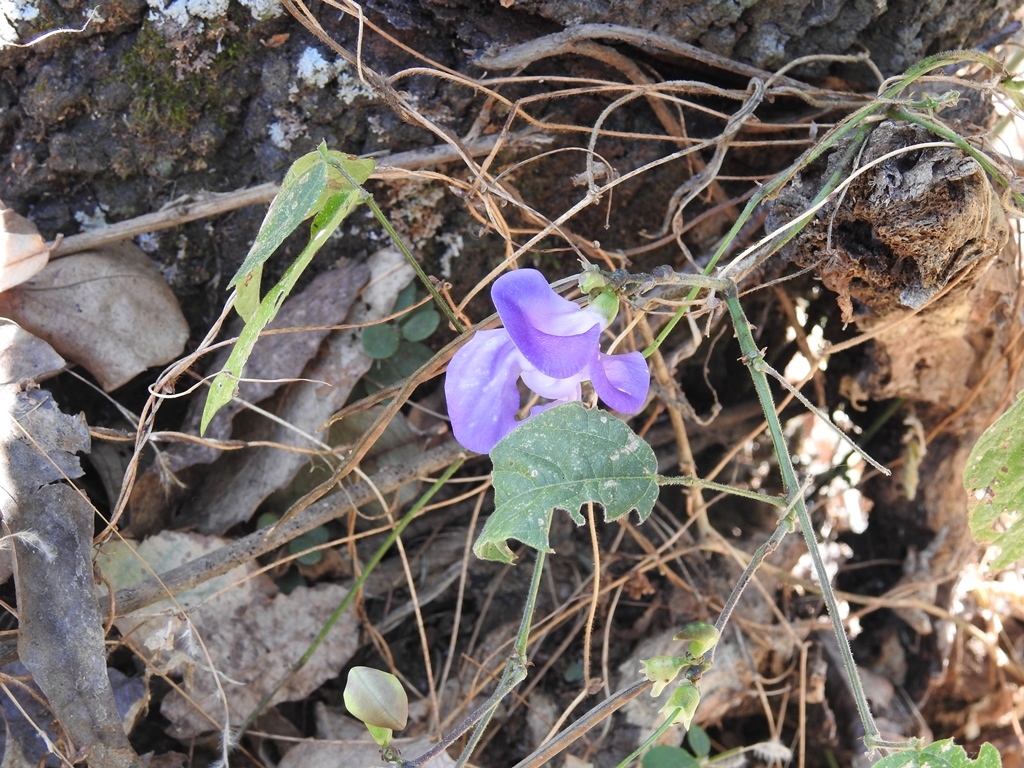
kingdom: Plantae
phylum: Tracheophyta
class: Magnoliopsida
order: Fabales
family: Fabaceae
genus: Leptospron
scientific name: Leptospron adenanthum
